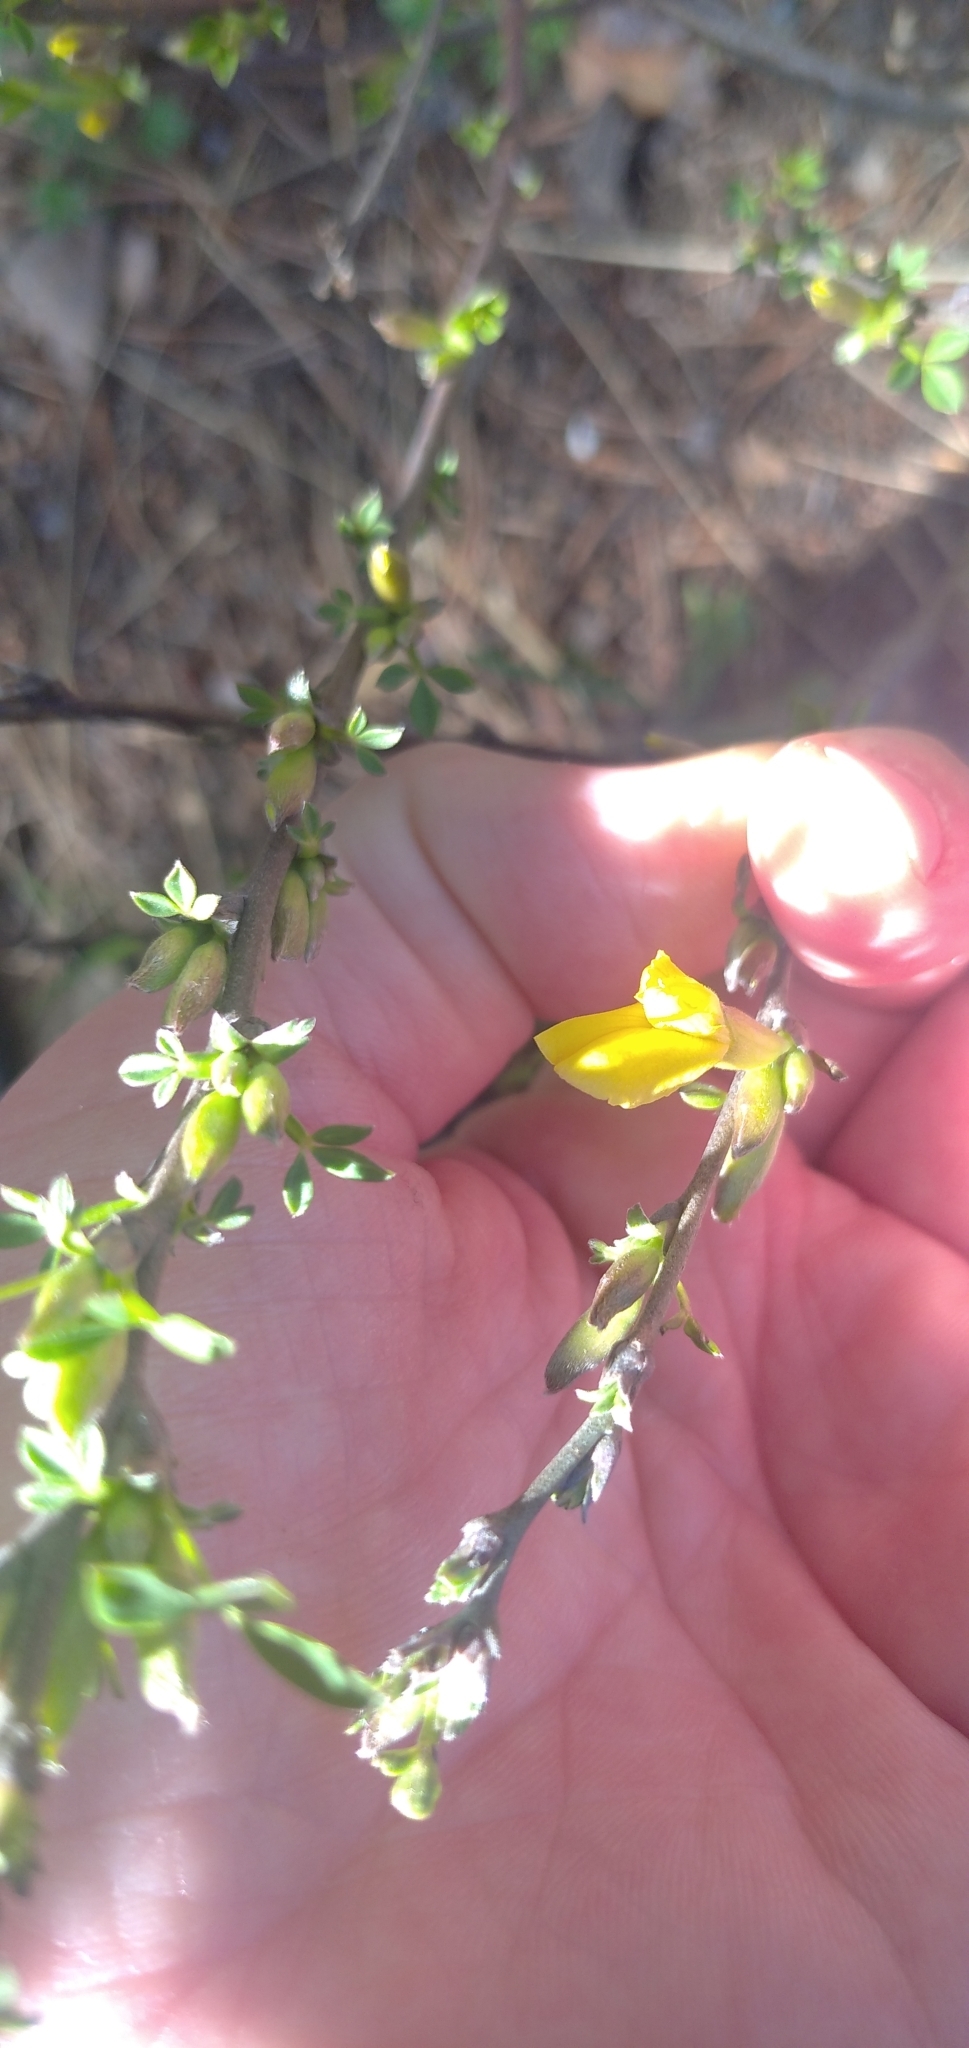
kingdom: Plantae
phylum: Tracheophyta
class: Magnoliopsida
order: Fabales
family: Fabaceae
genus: Chamaecytisus
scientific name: Chamaecytisus ruthenicus
